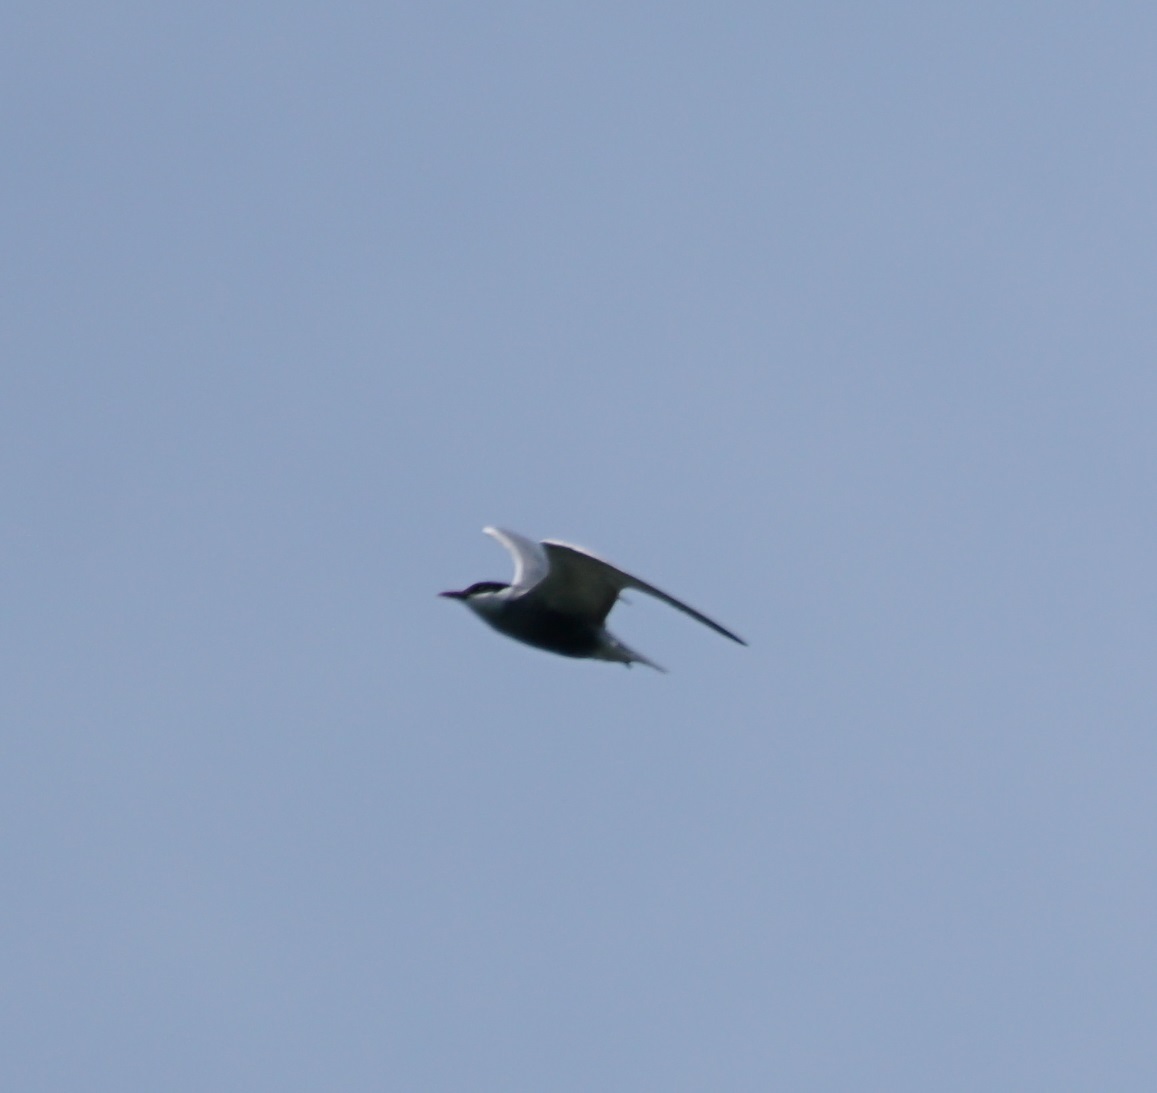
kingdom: Animalia
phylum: Chordata
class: Aves
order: Charadriiformes
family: Laridae
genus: Chlidonias
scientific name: Chlidonias hybrida
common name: Whiskered tern
